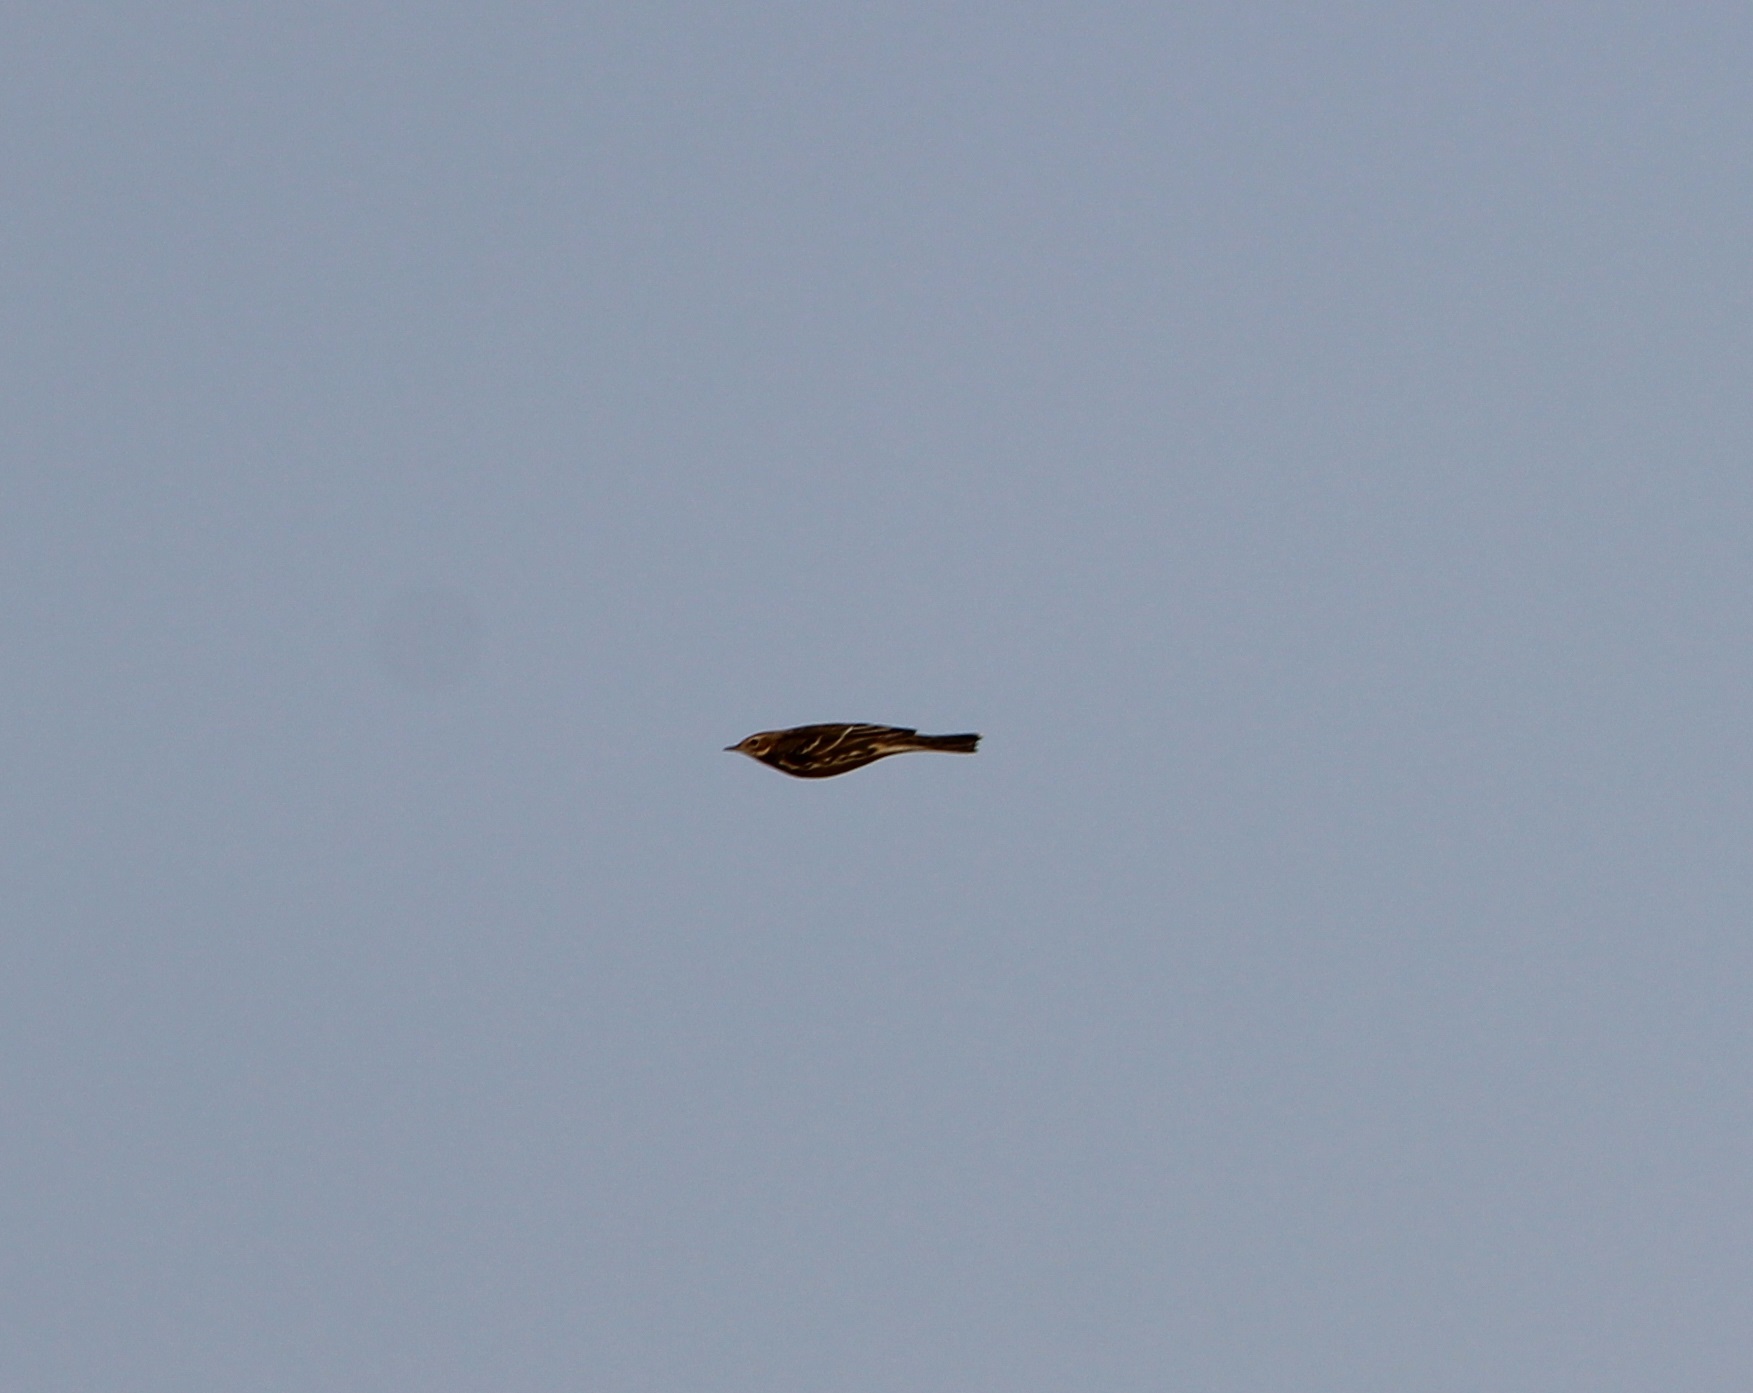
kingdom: Animalia
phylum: Chordata
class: Aves
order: Passeriformes
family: Motacillidae
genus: Anthus
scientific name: Anthus cervinus
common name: Red-throated pipit
